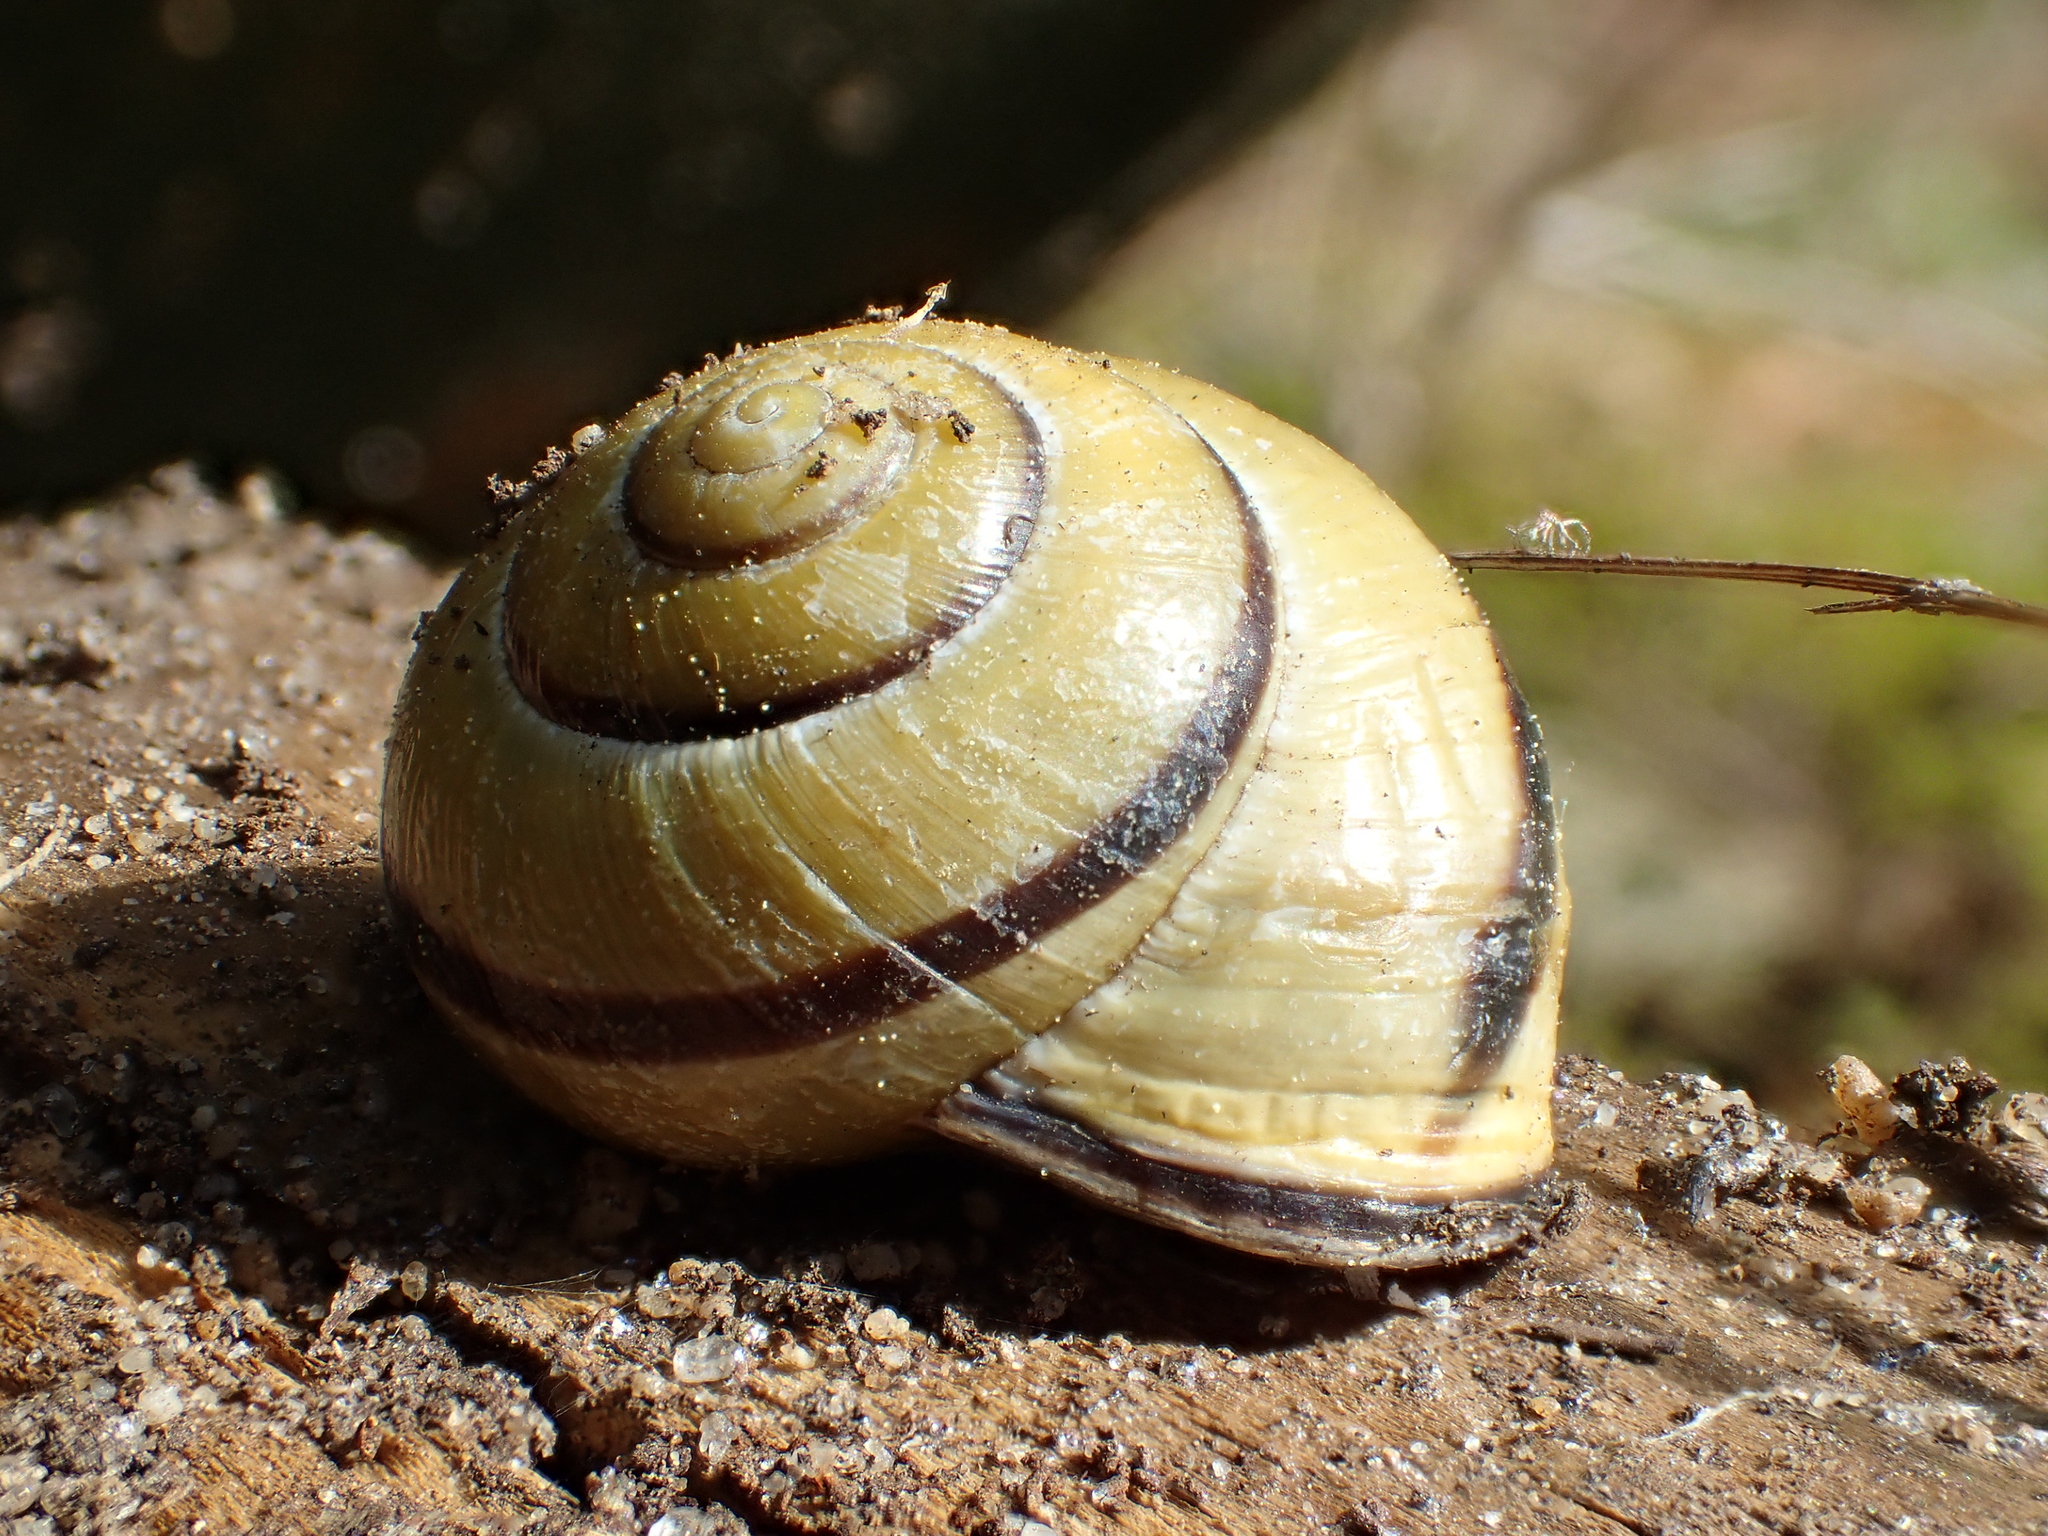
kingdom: Animalia
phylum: Mollusca
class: Gastropoda
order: Stylommatophora
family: Helicidae
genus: Cepaea
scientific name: Cepaea nemoralis
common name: Grovesnail
